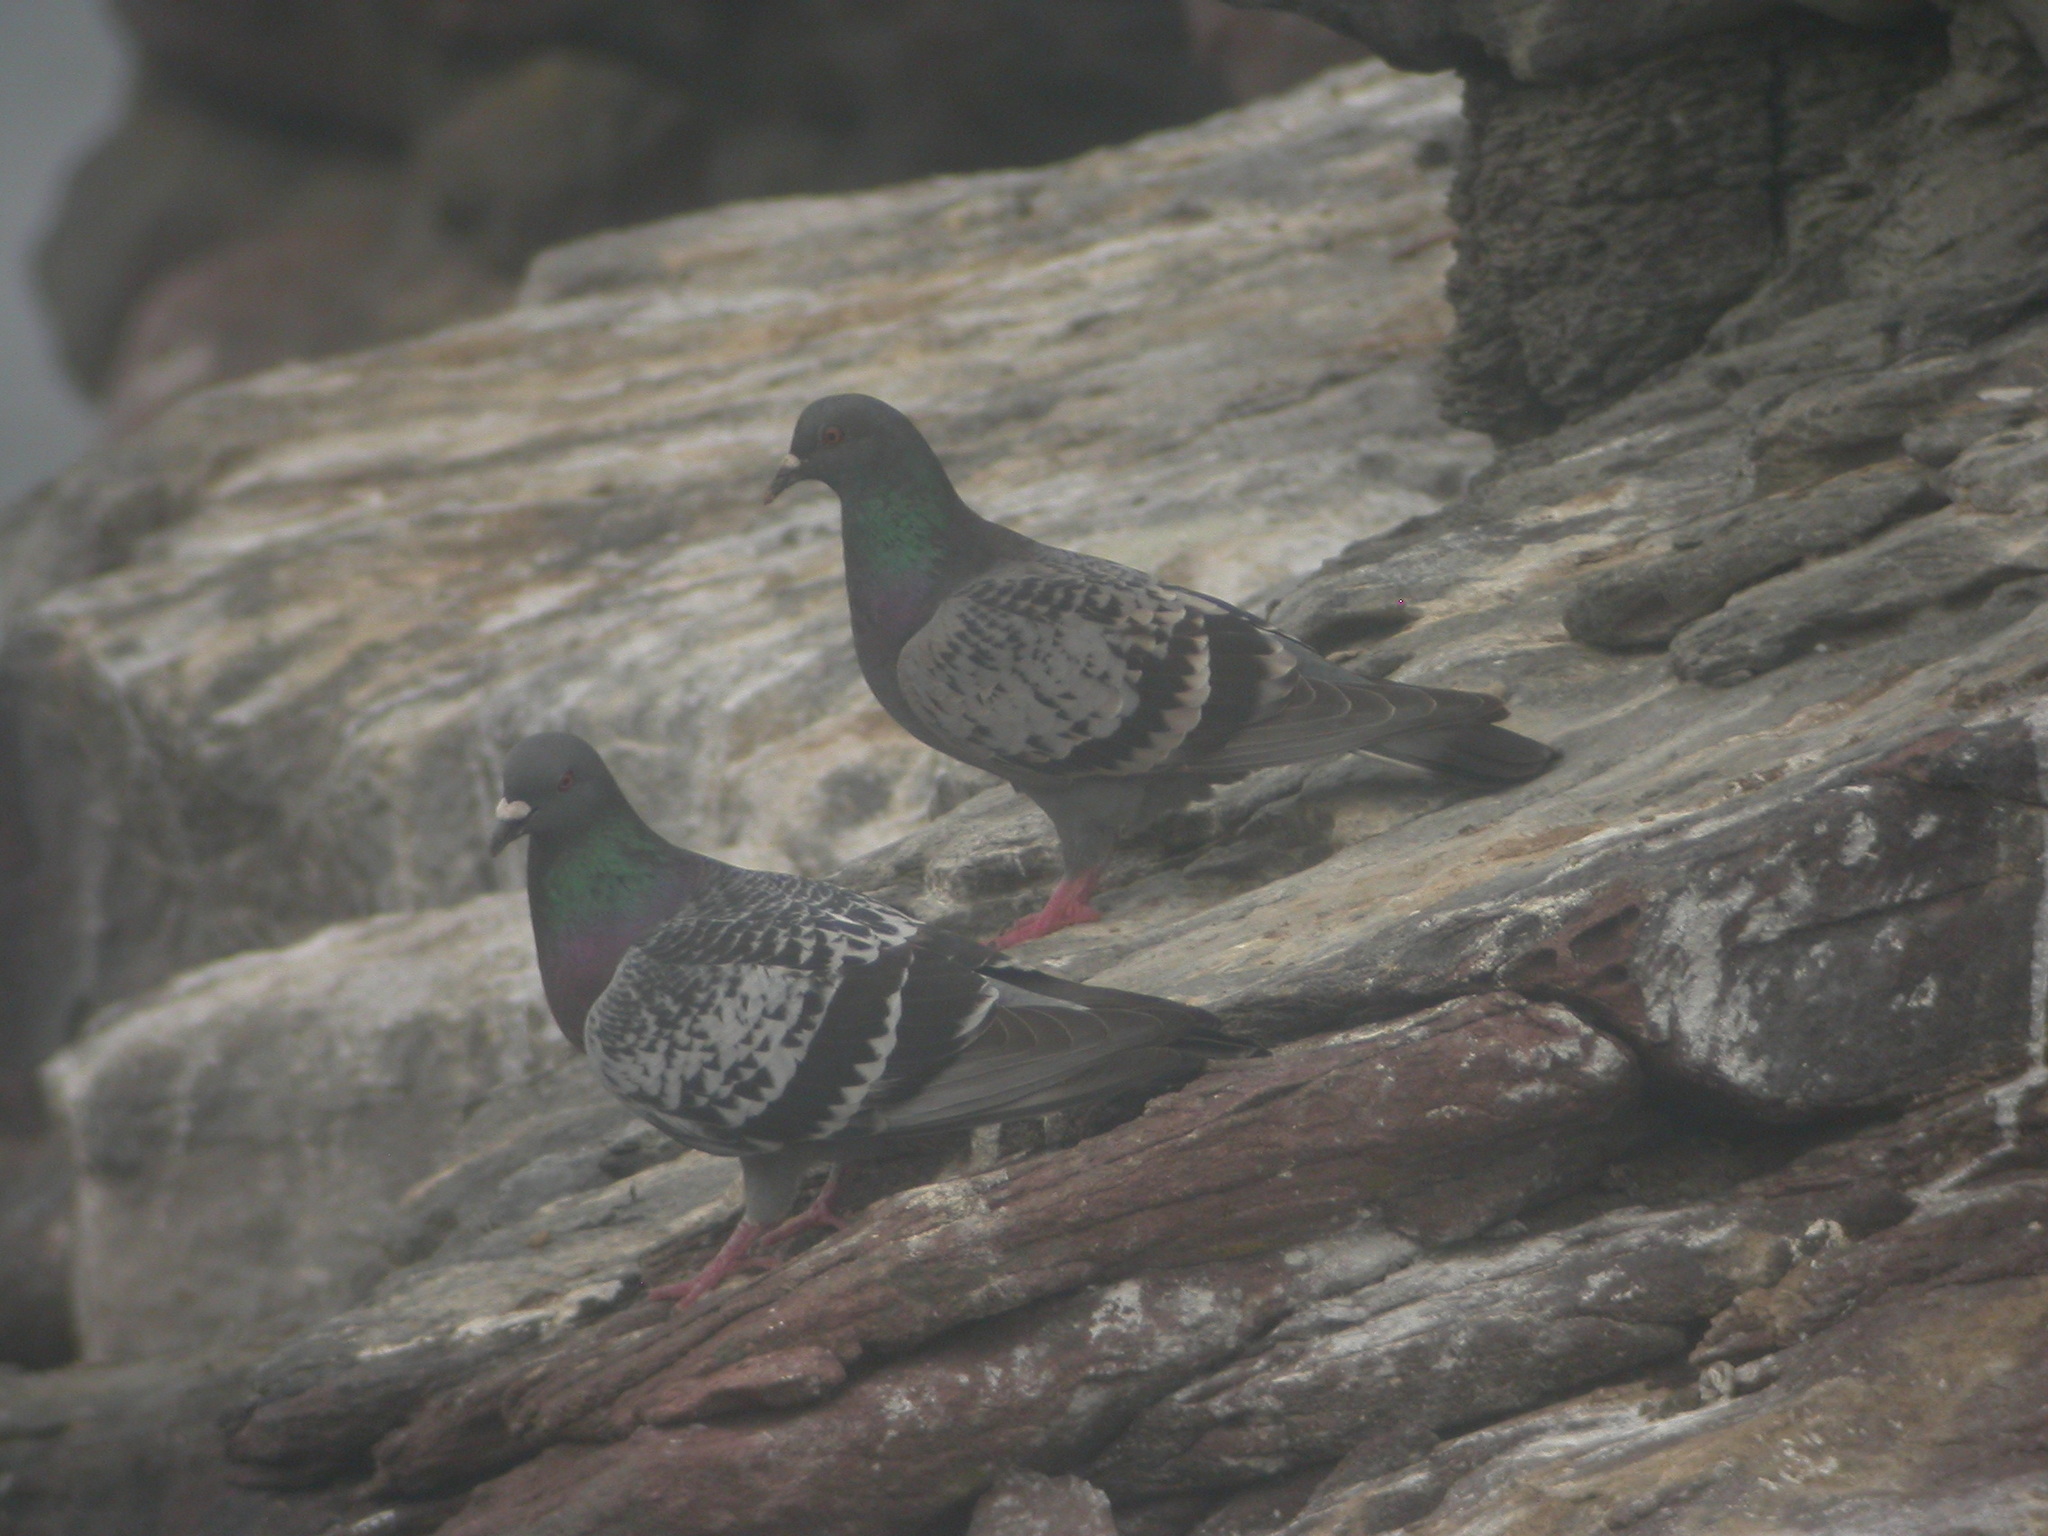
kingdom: Animalia
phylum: Chordata
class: Aves
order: Columbiformes
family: Columbidae
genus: Columba
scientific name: Columba livia
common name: Rock pigeon
